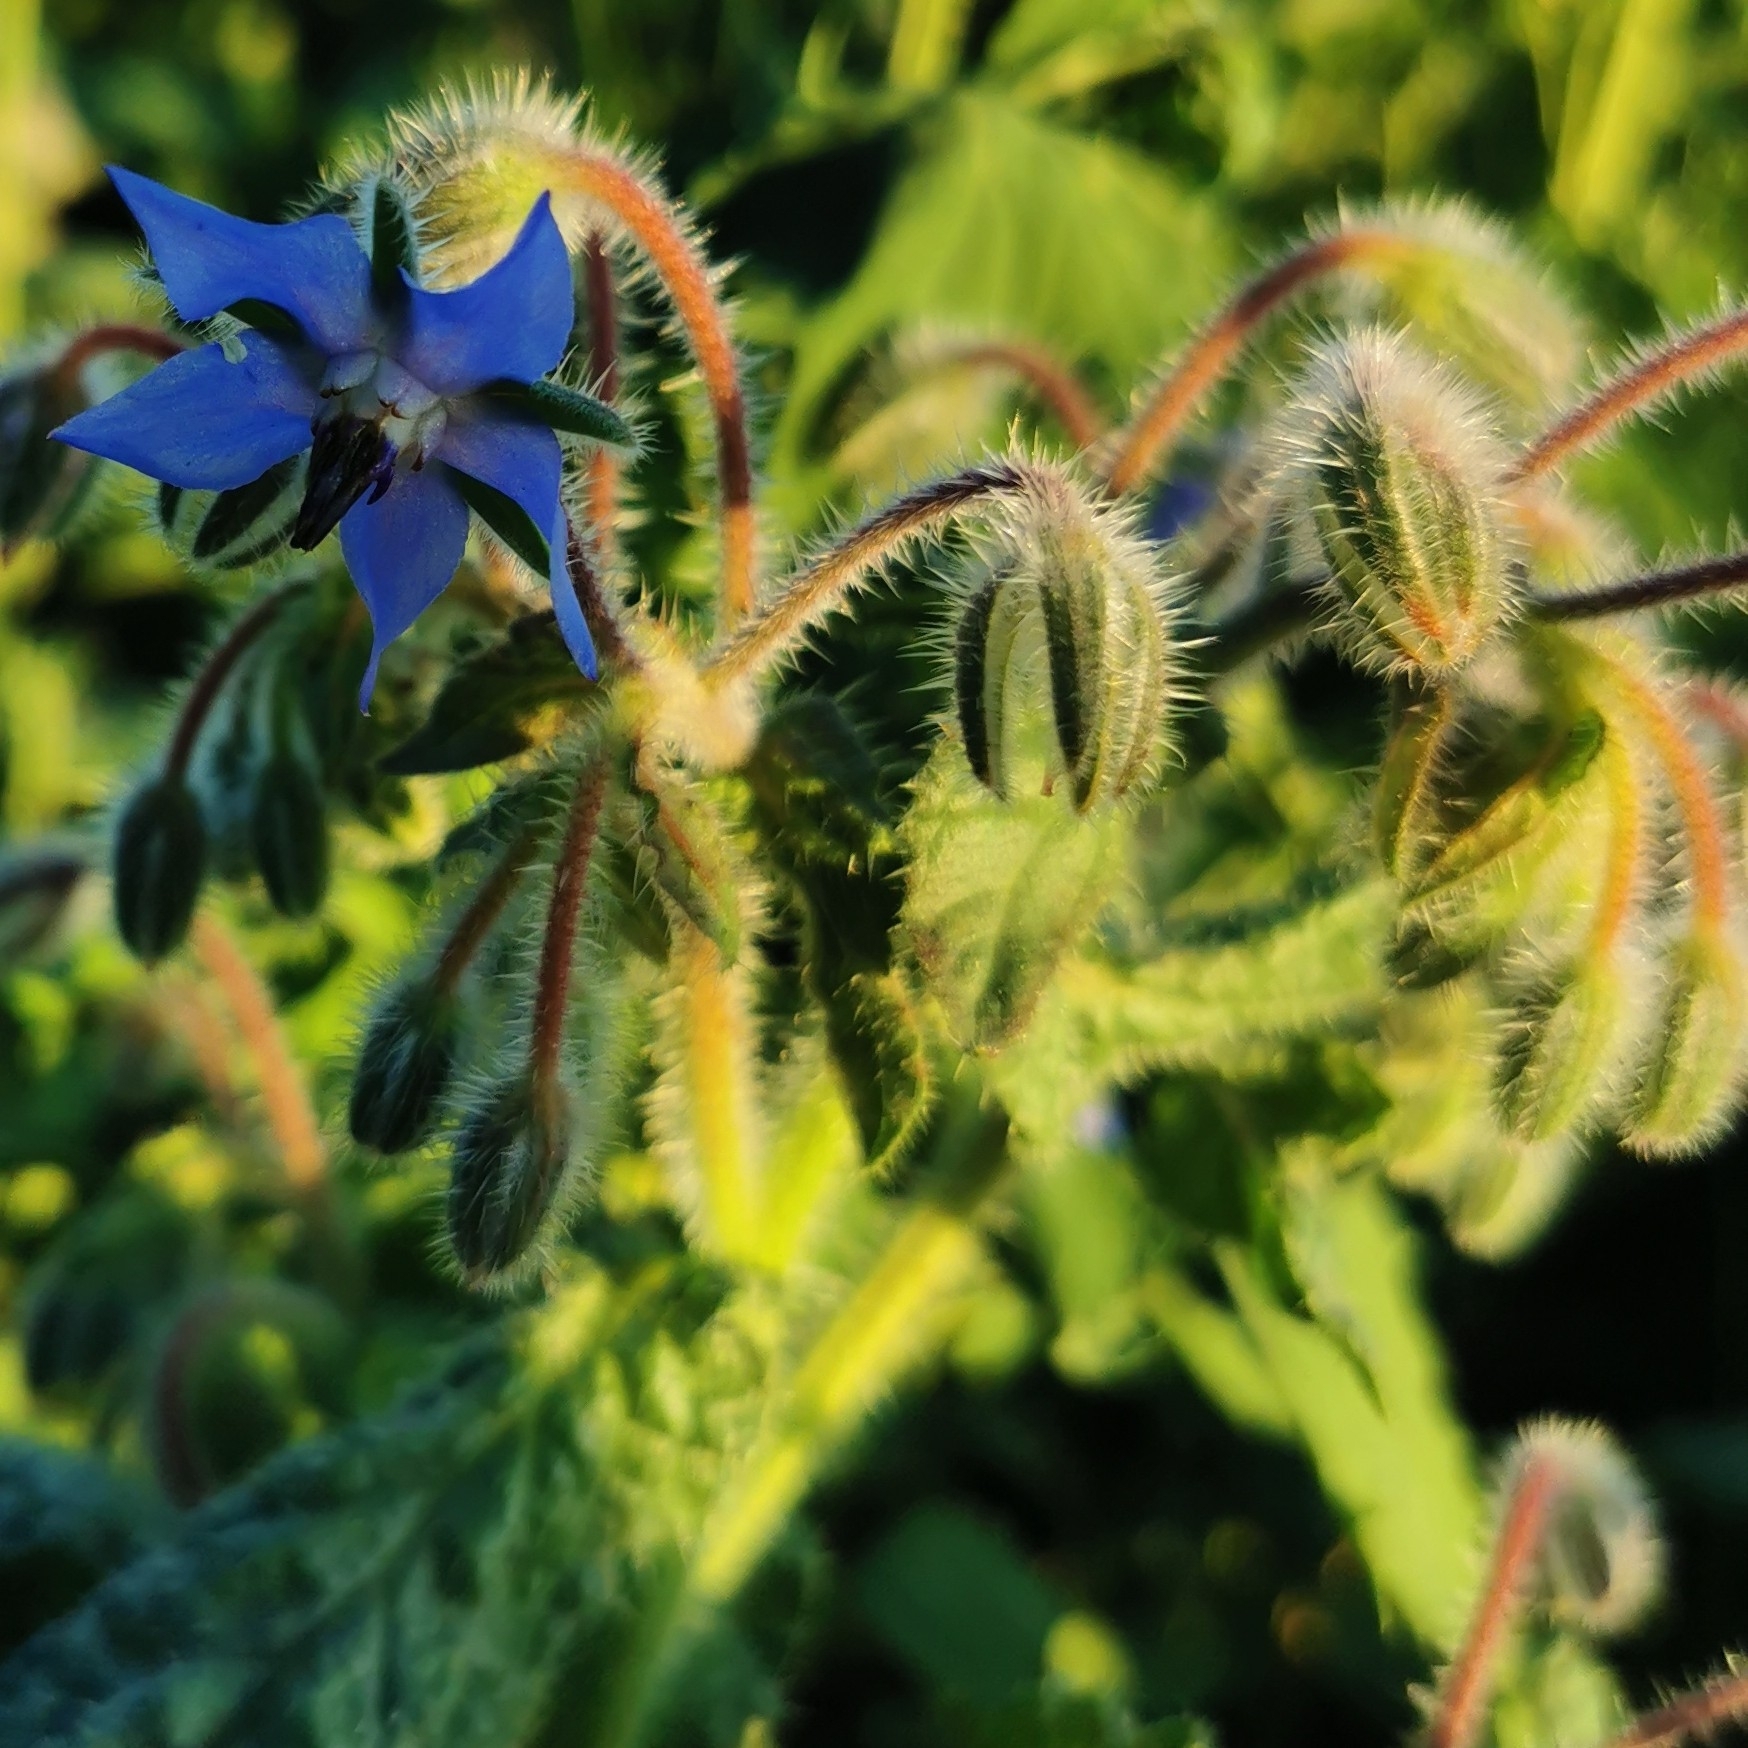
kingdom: Plantae
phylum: Tracheophyta
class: Magnoliopsida
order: Boraginales
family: Boraginaceae
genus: Borago
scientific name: Borago officinalis
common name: Borage
